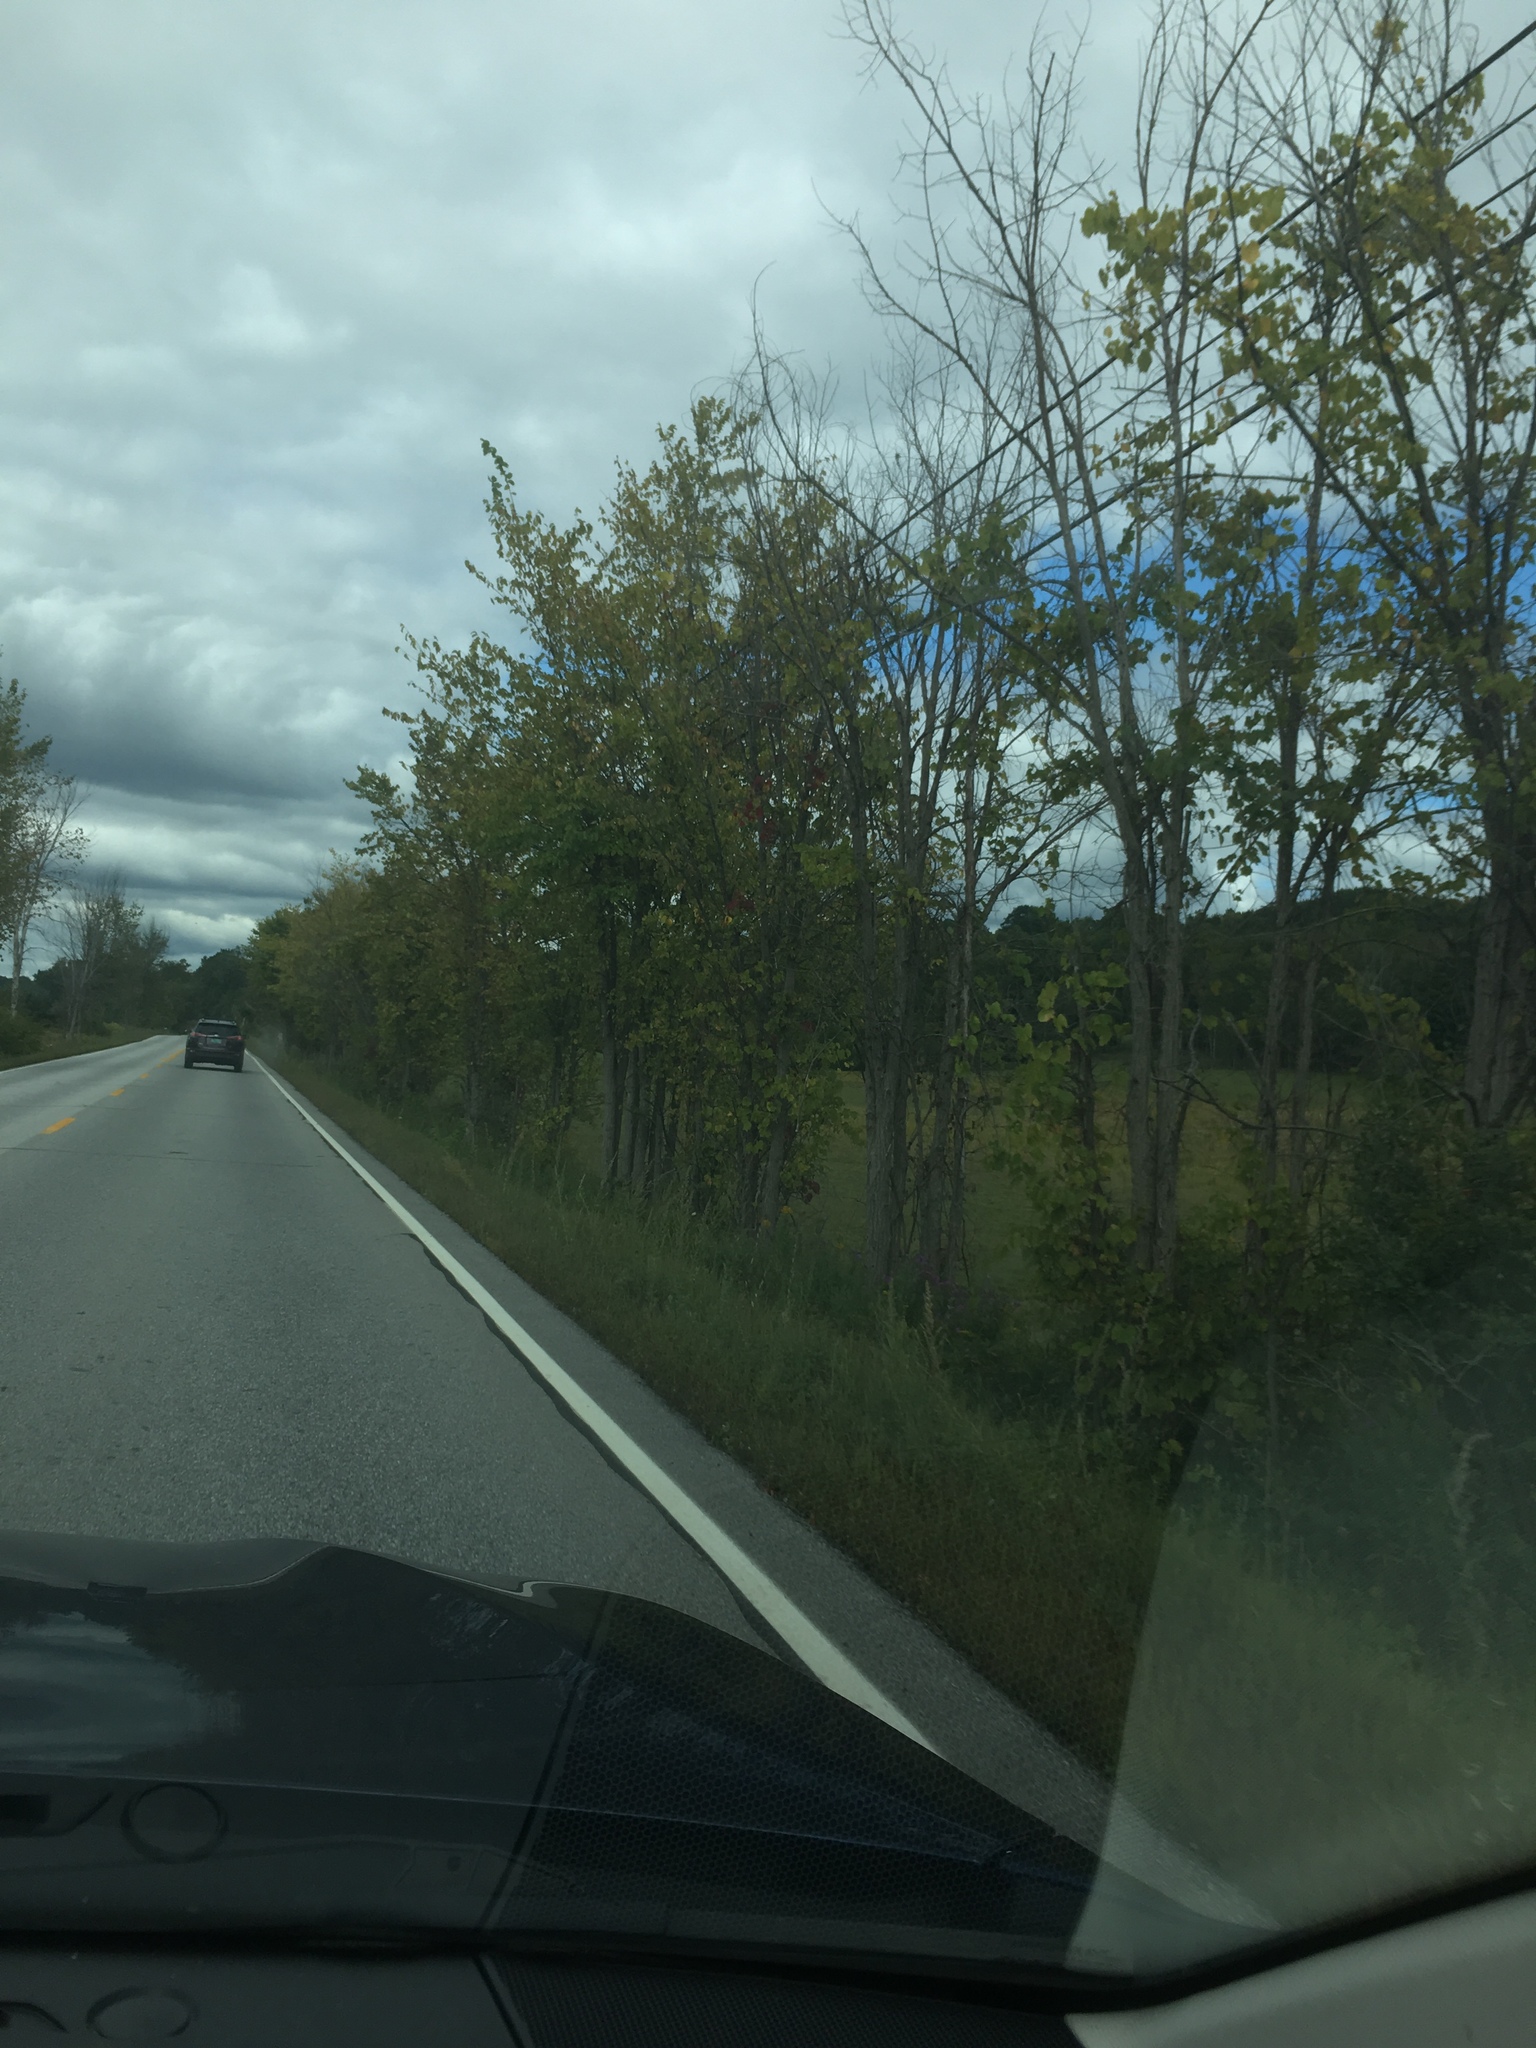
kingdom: Plantae
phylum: Tracheophyta
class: Magnoliopsida
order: Rosales
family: Ulmaceae
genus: Ulmus
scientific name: Ulmus americana
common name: American elm
